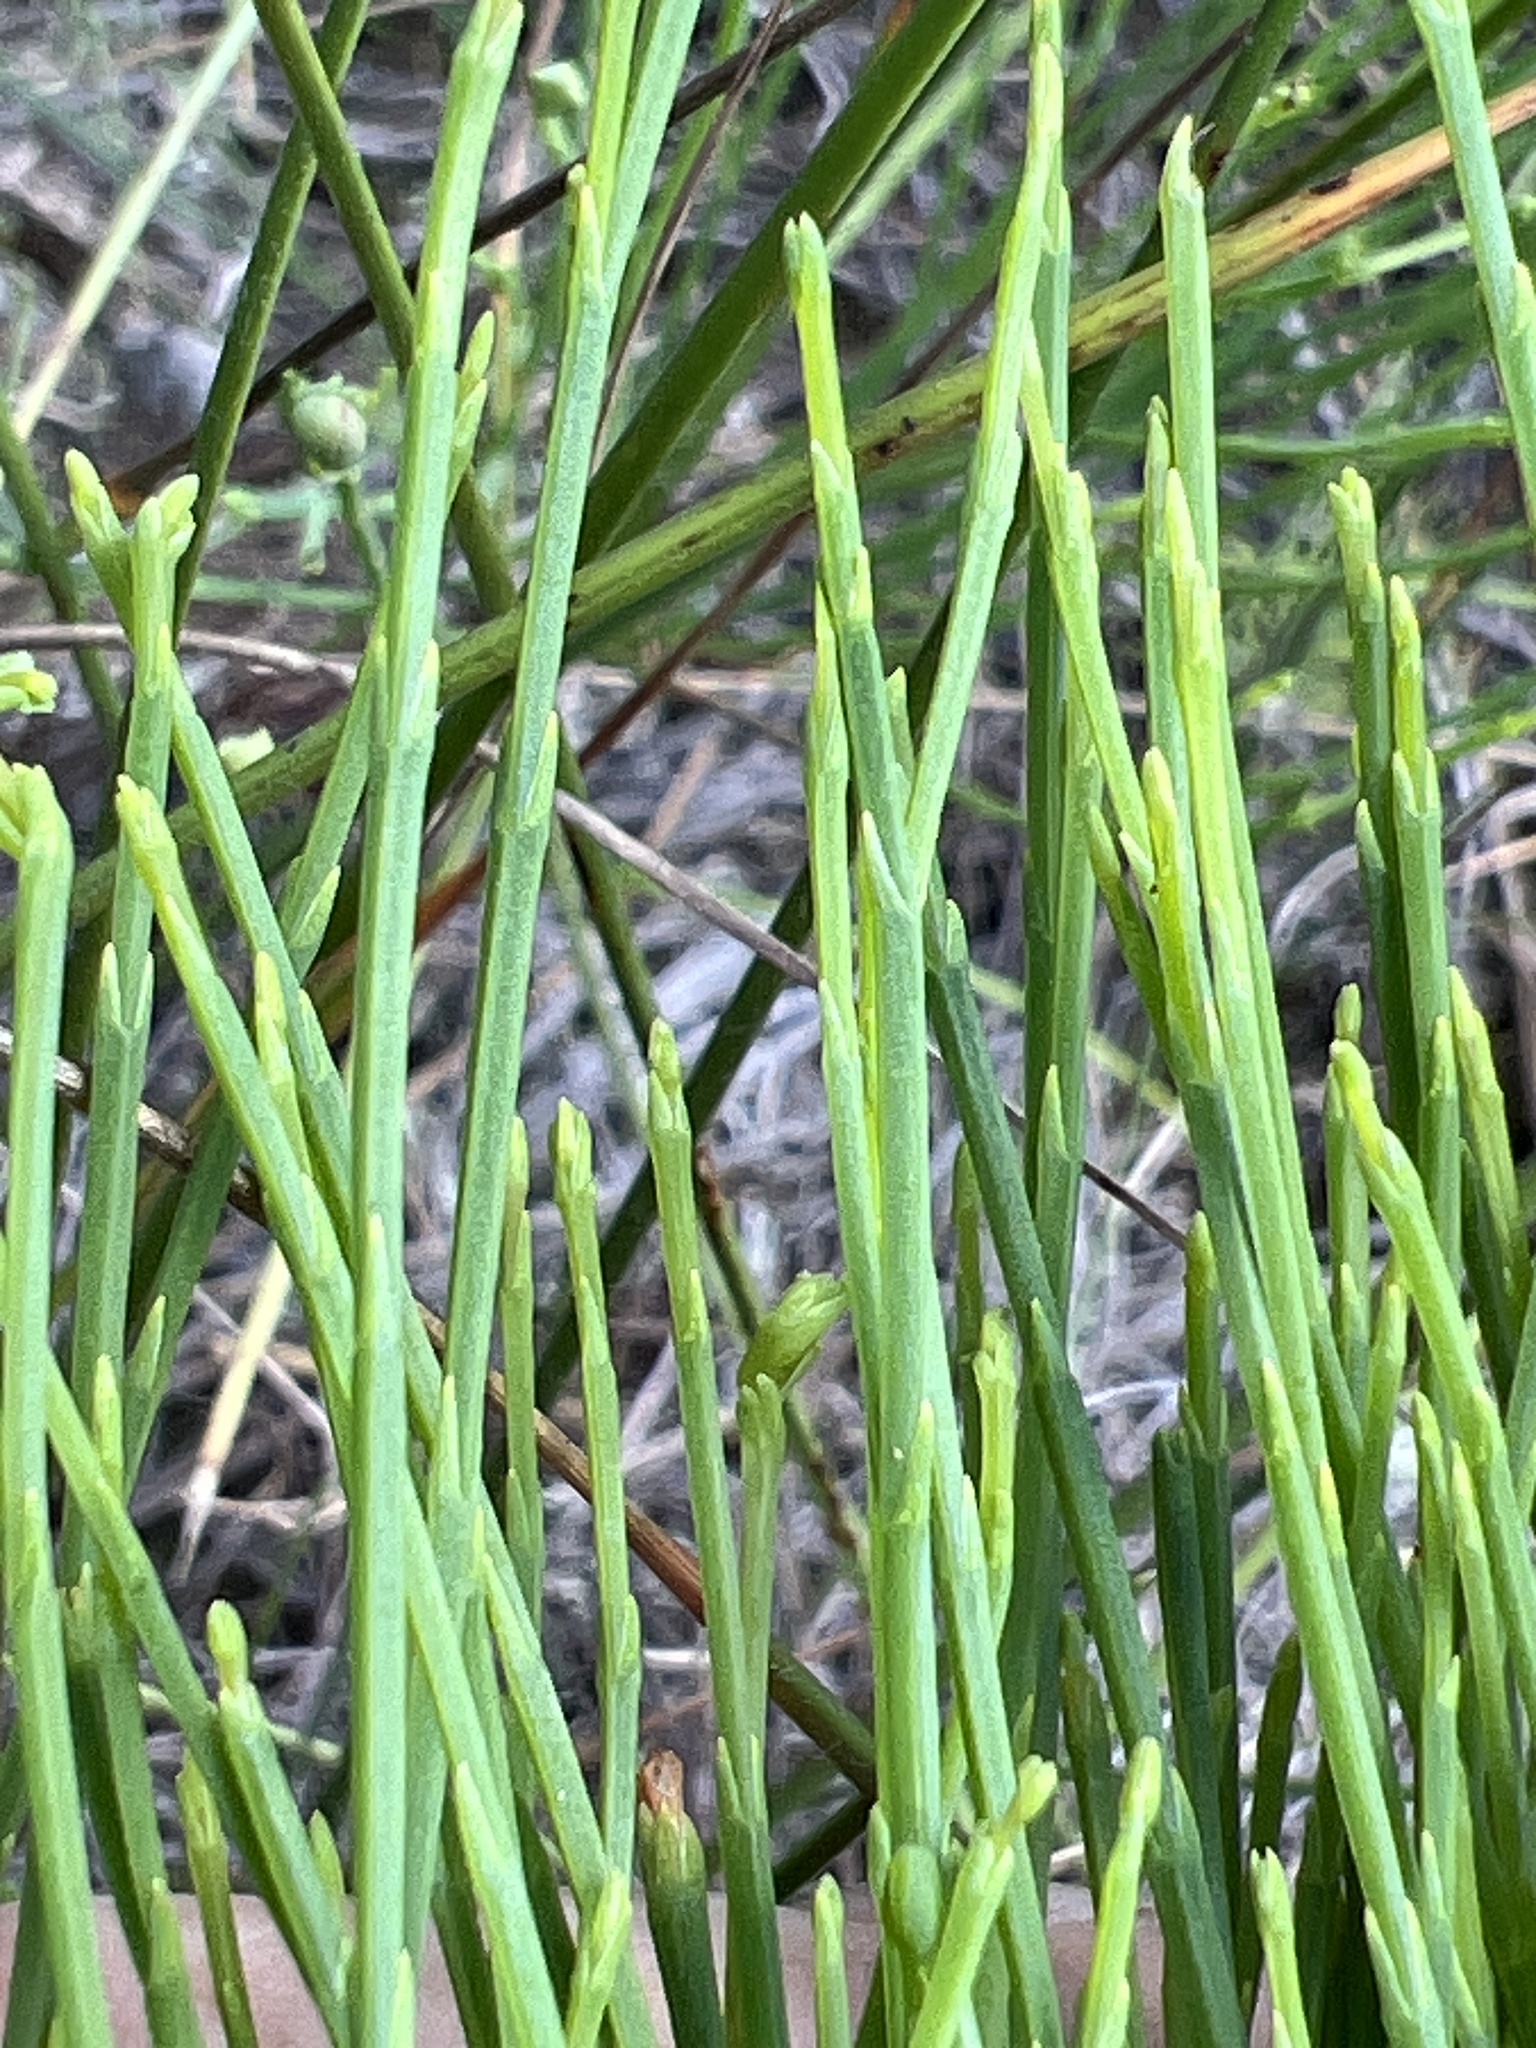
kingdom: Plantae
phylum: Tracheophyta
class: Magnoliopsida
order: Malpighiales
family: Hypericaceae
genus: Hypericum
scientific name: Hypericum gentianoides
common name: Gentian-leaved st. john's-wort
